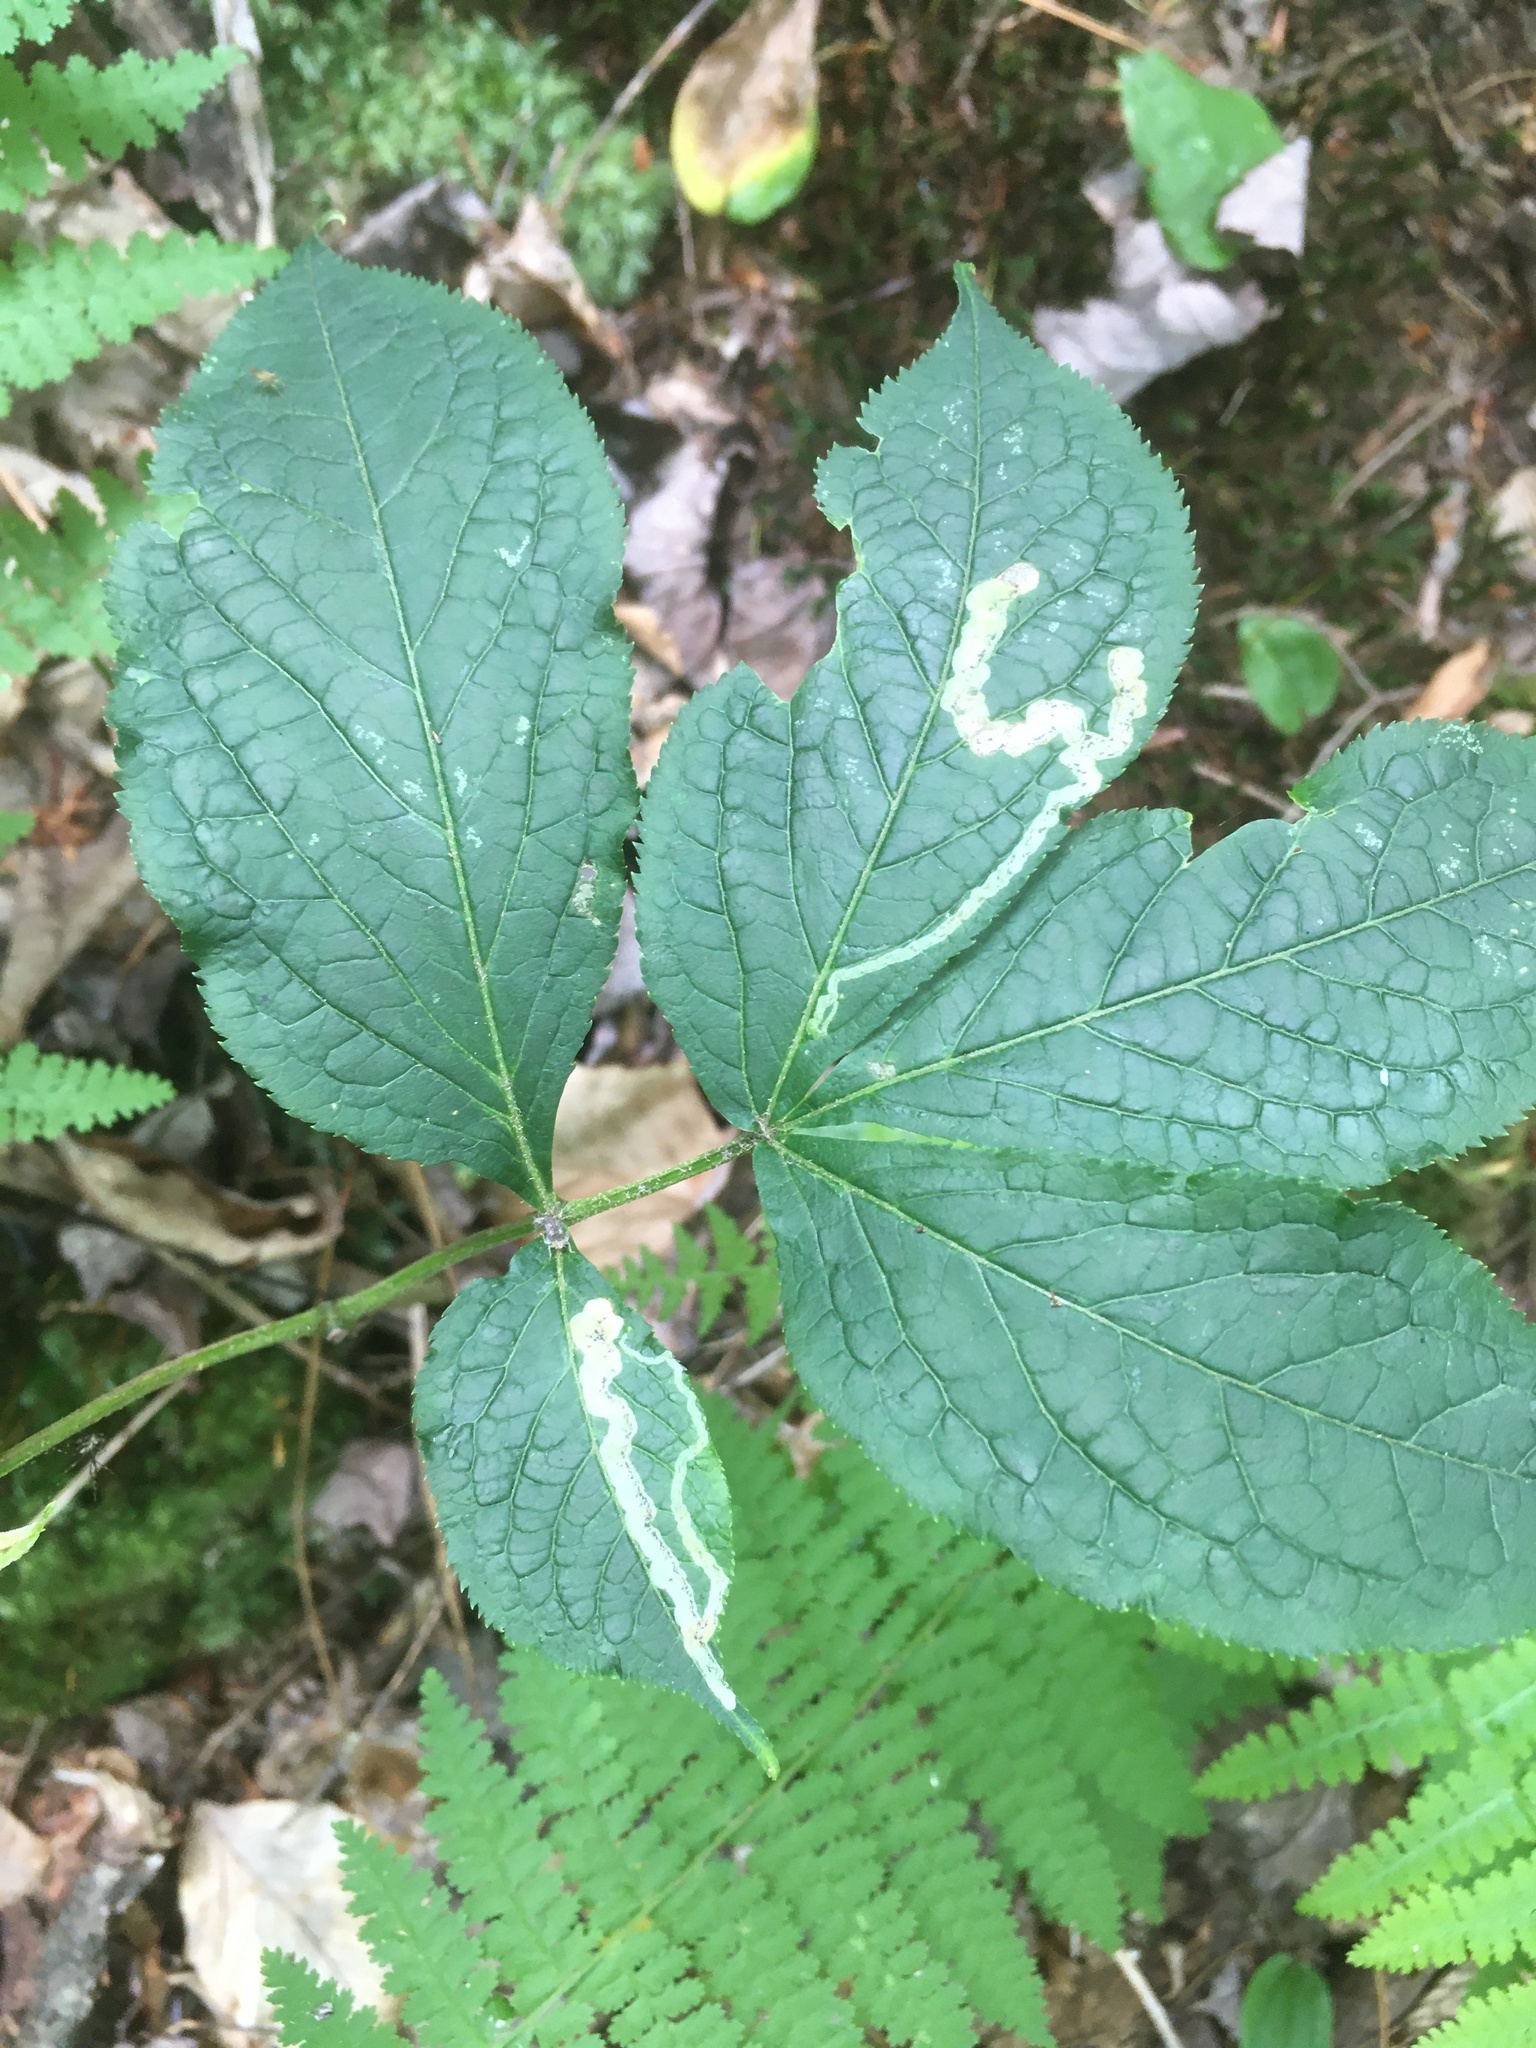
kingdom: Animalia
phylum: Arthropoda
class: Insecta
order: Diptera
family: Agromyzidae
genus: Phytomyza
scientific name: Phytomyza aralivora
